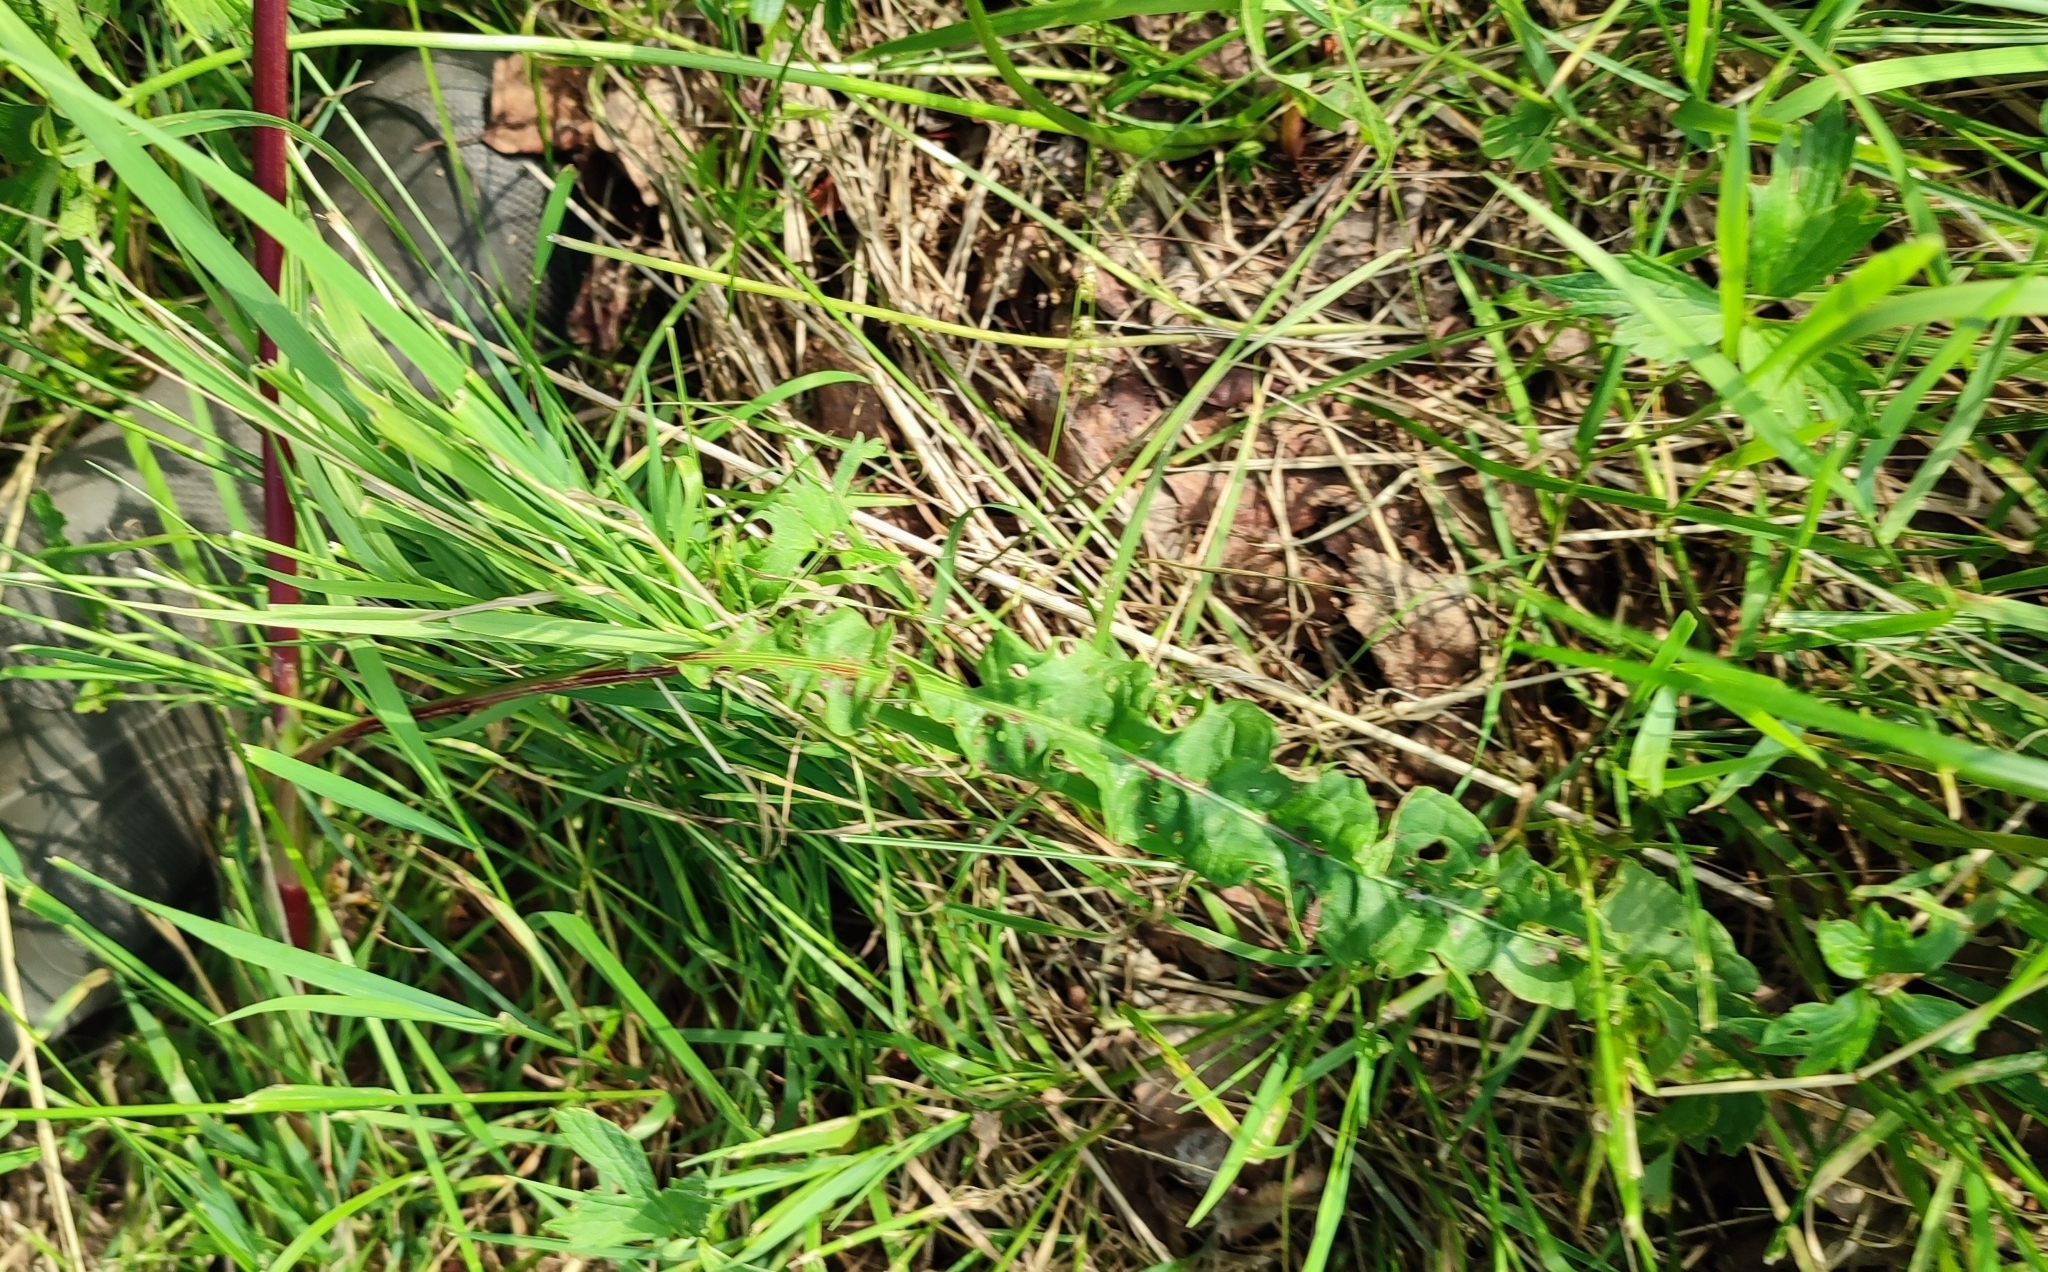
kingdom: Plantae
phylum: Tracheophyta
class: Magnoliopsida
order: Caryophyllales
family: Polygonaceae
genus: Rumex
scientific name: Rumex pseudonatronatus
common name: Field dock
